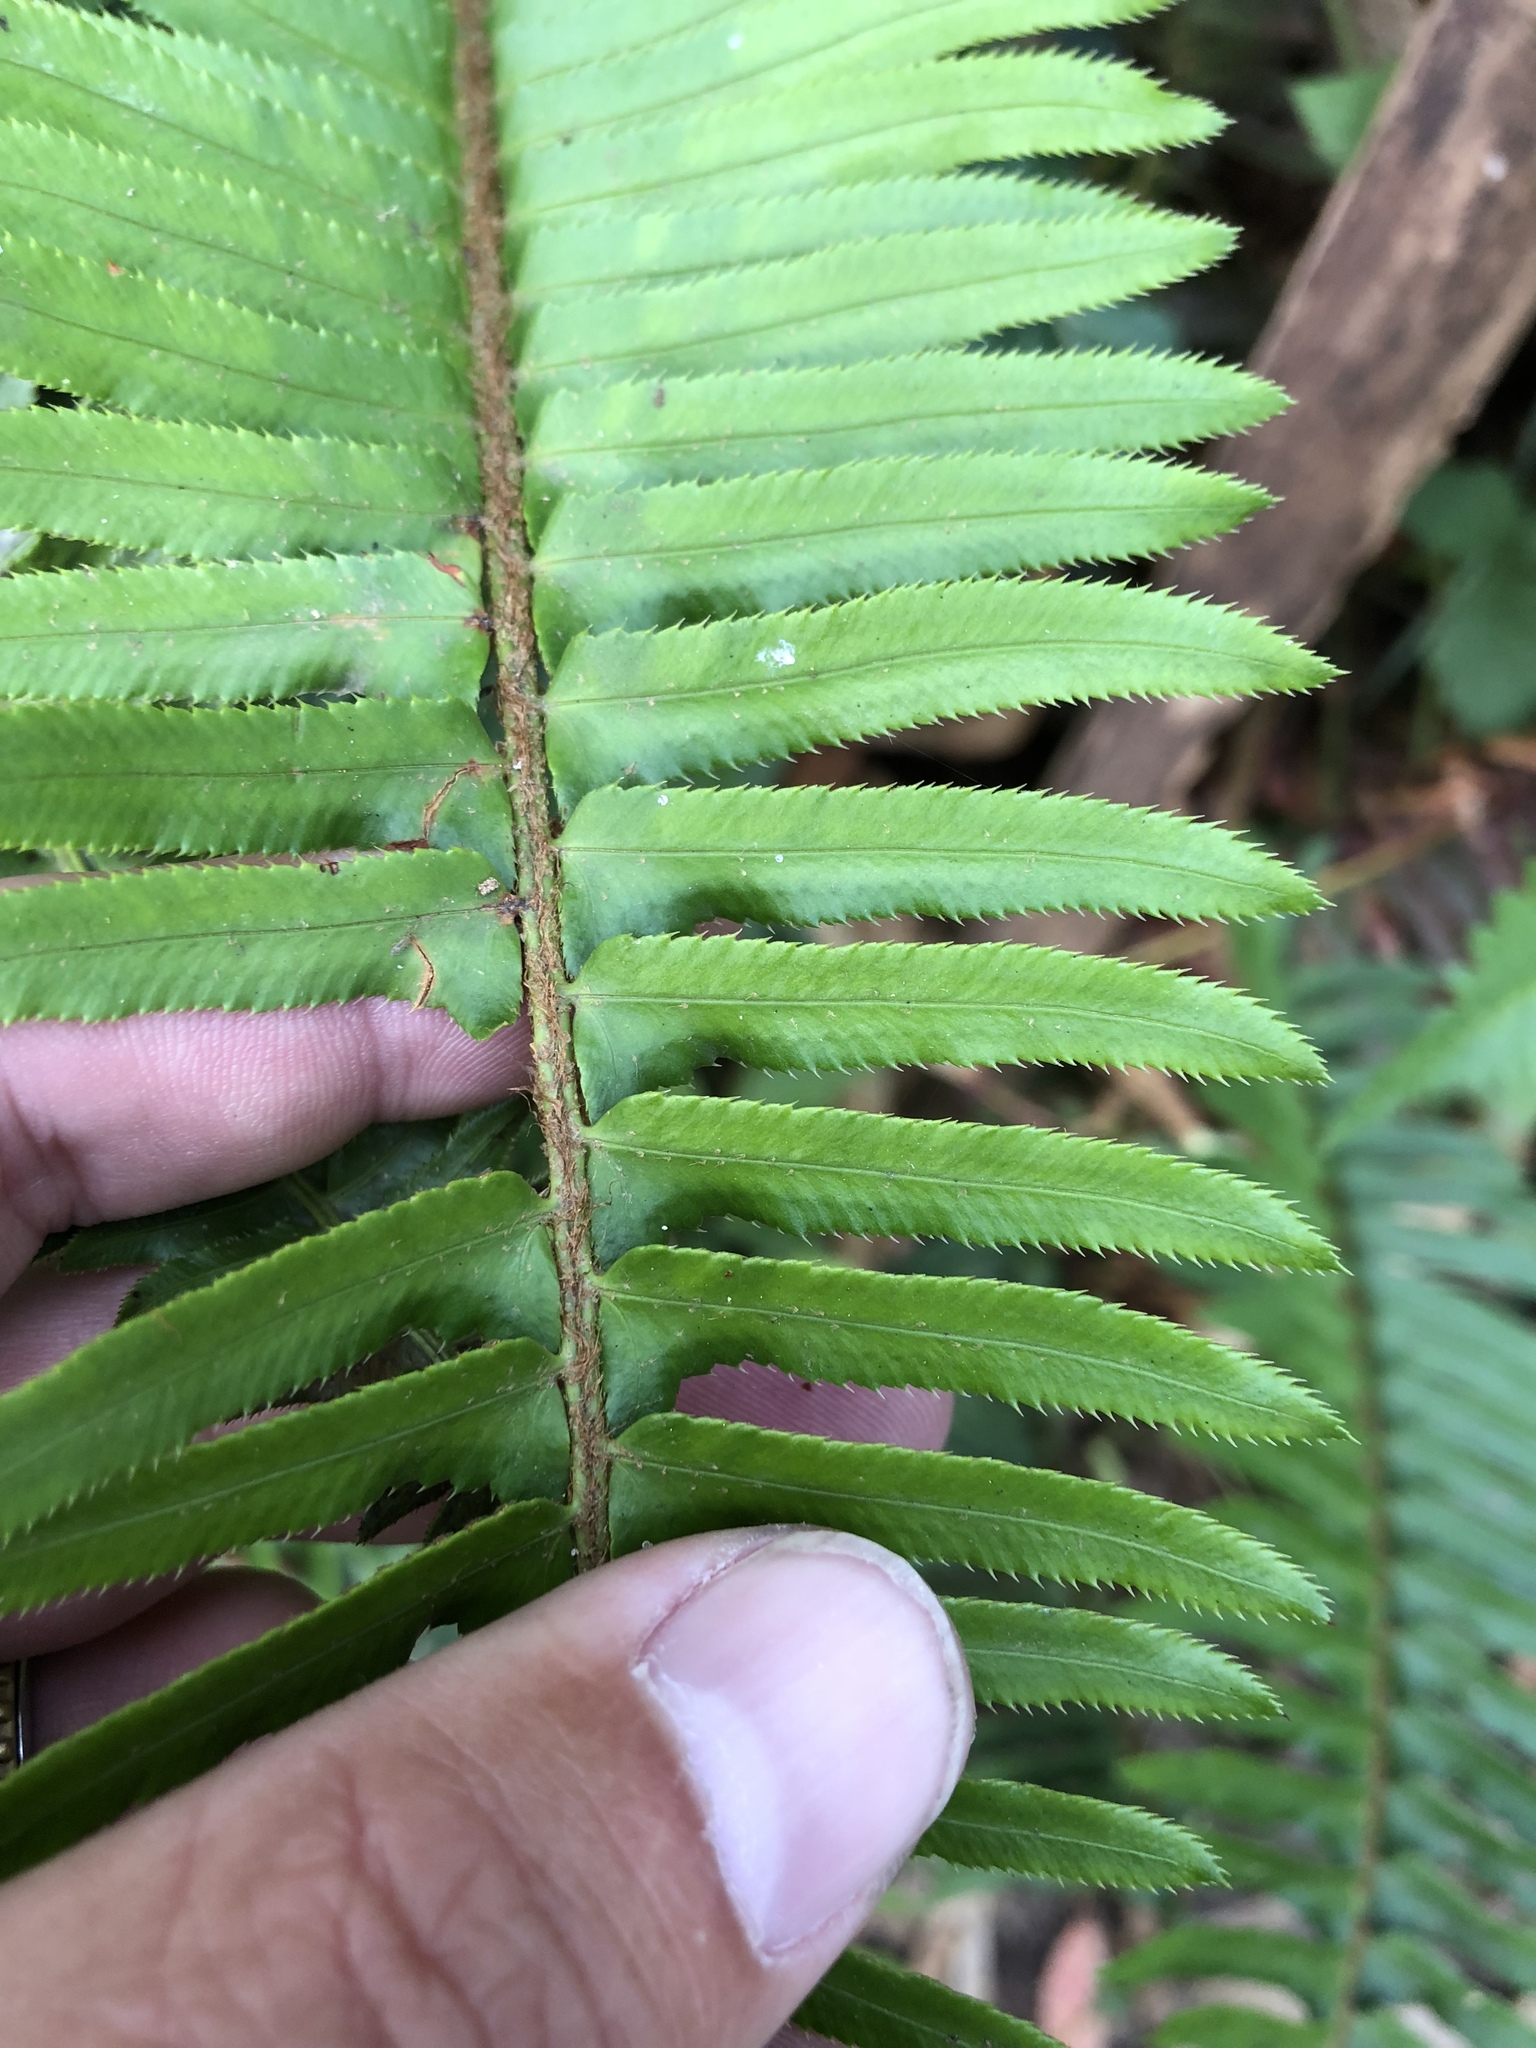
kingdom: Plantae
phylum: Tracheophyta
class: Polypodiopsida
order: Polypodiales
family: Dryopteridaceae
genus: Polystichum
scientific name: Polystichum munitum
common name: Western sword-fern
